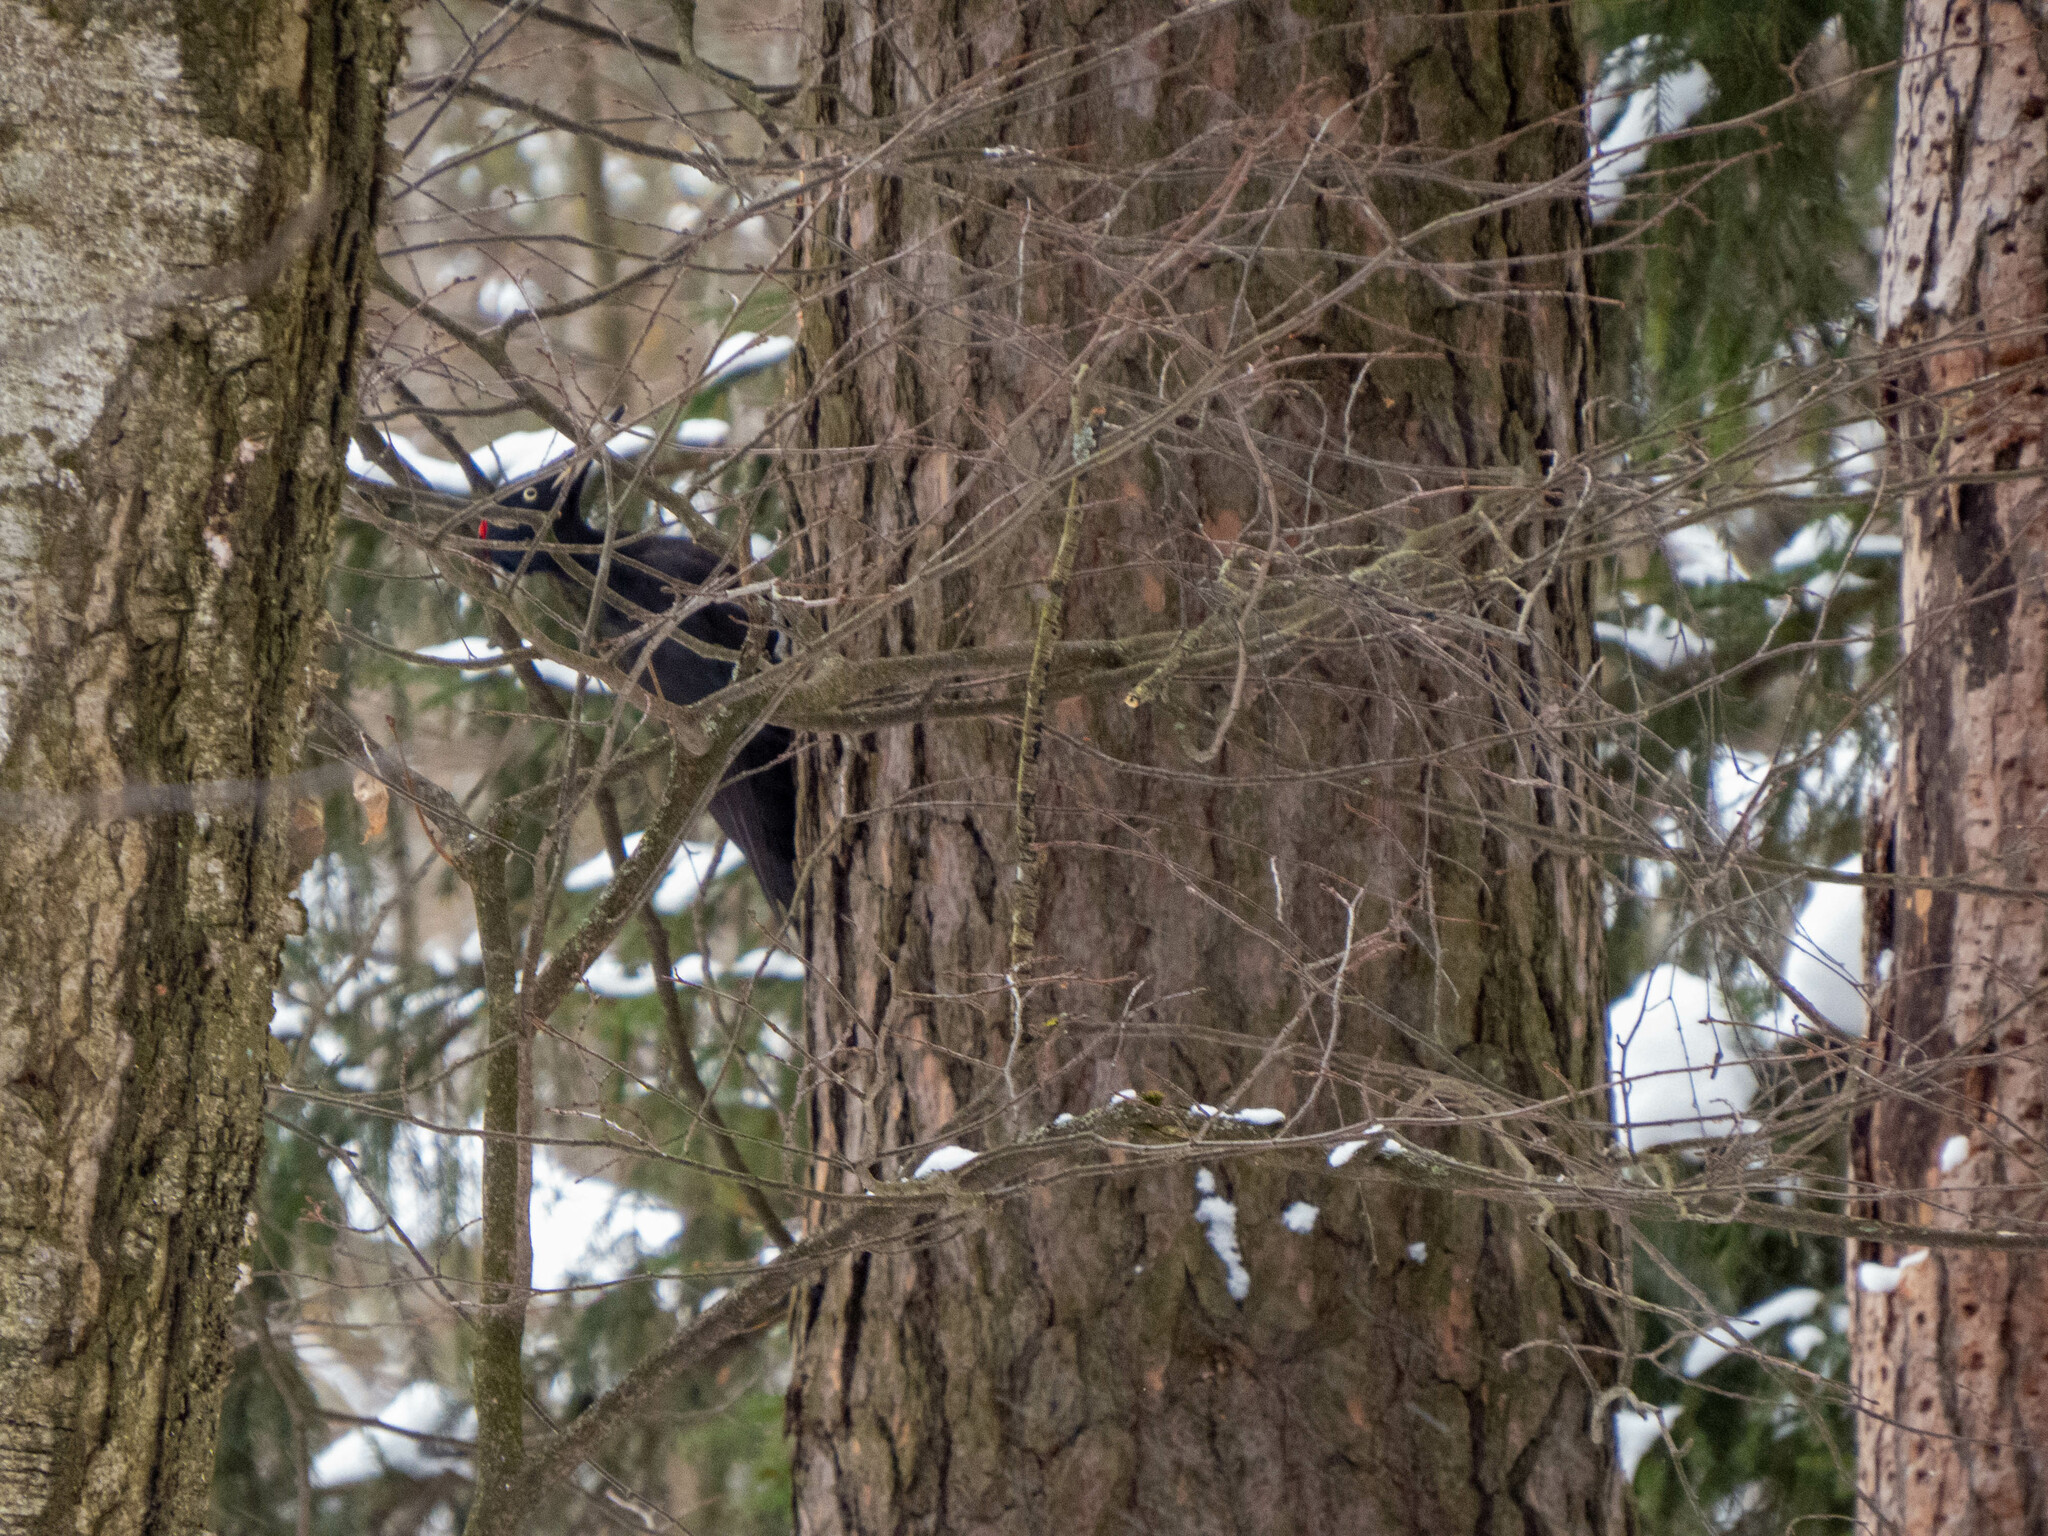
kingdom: Animalia
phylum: Chordata
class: Aves
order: Piciformes
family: Picidae
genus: Dryocopus
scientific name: Dryocopus martius
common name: Black woodpecker
